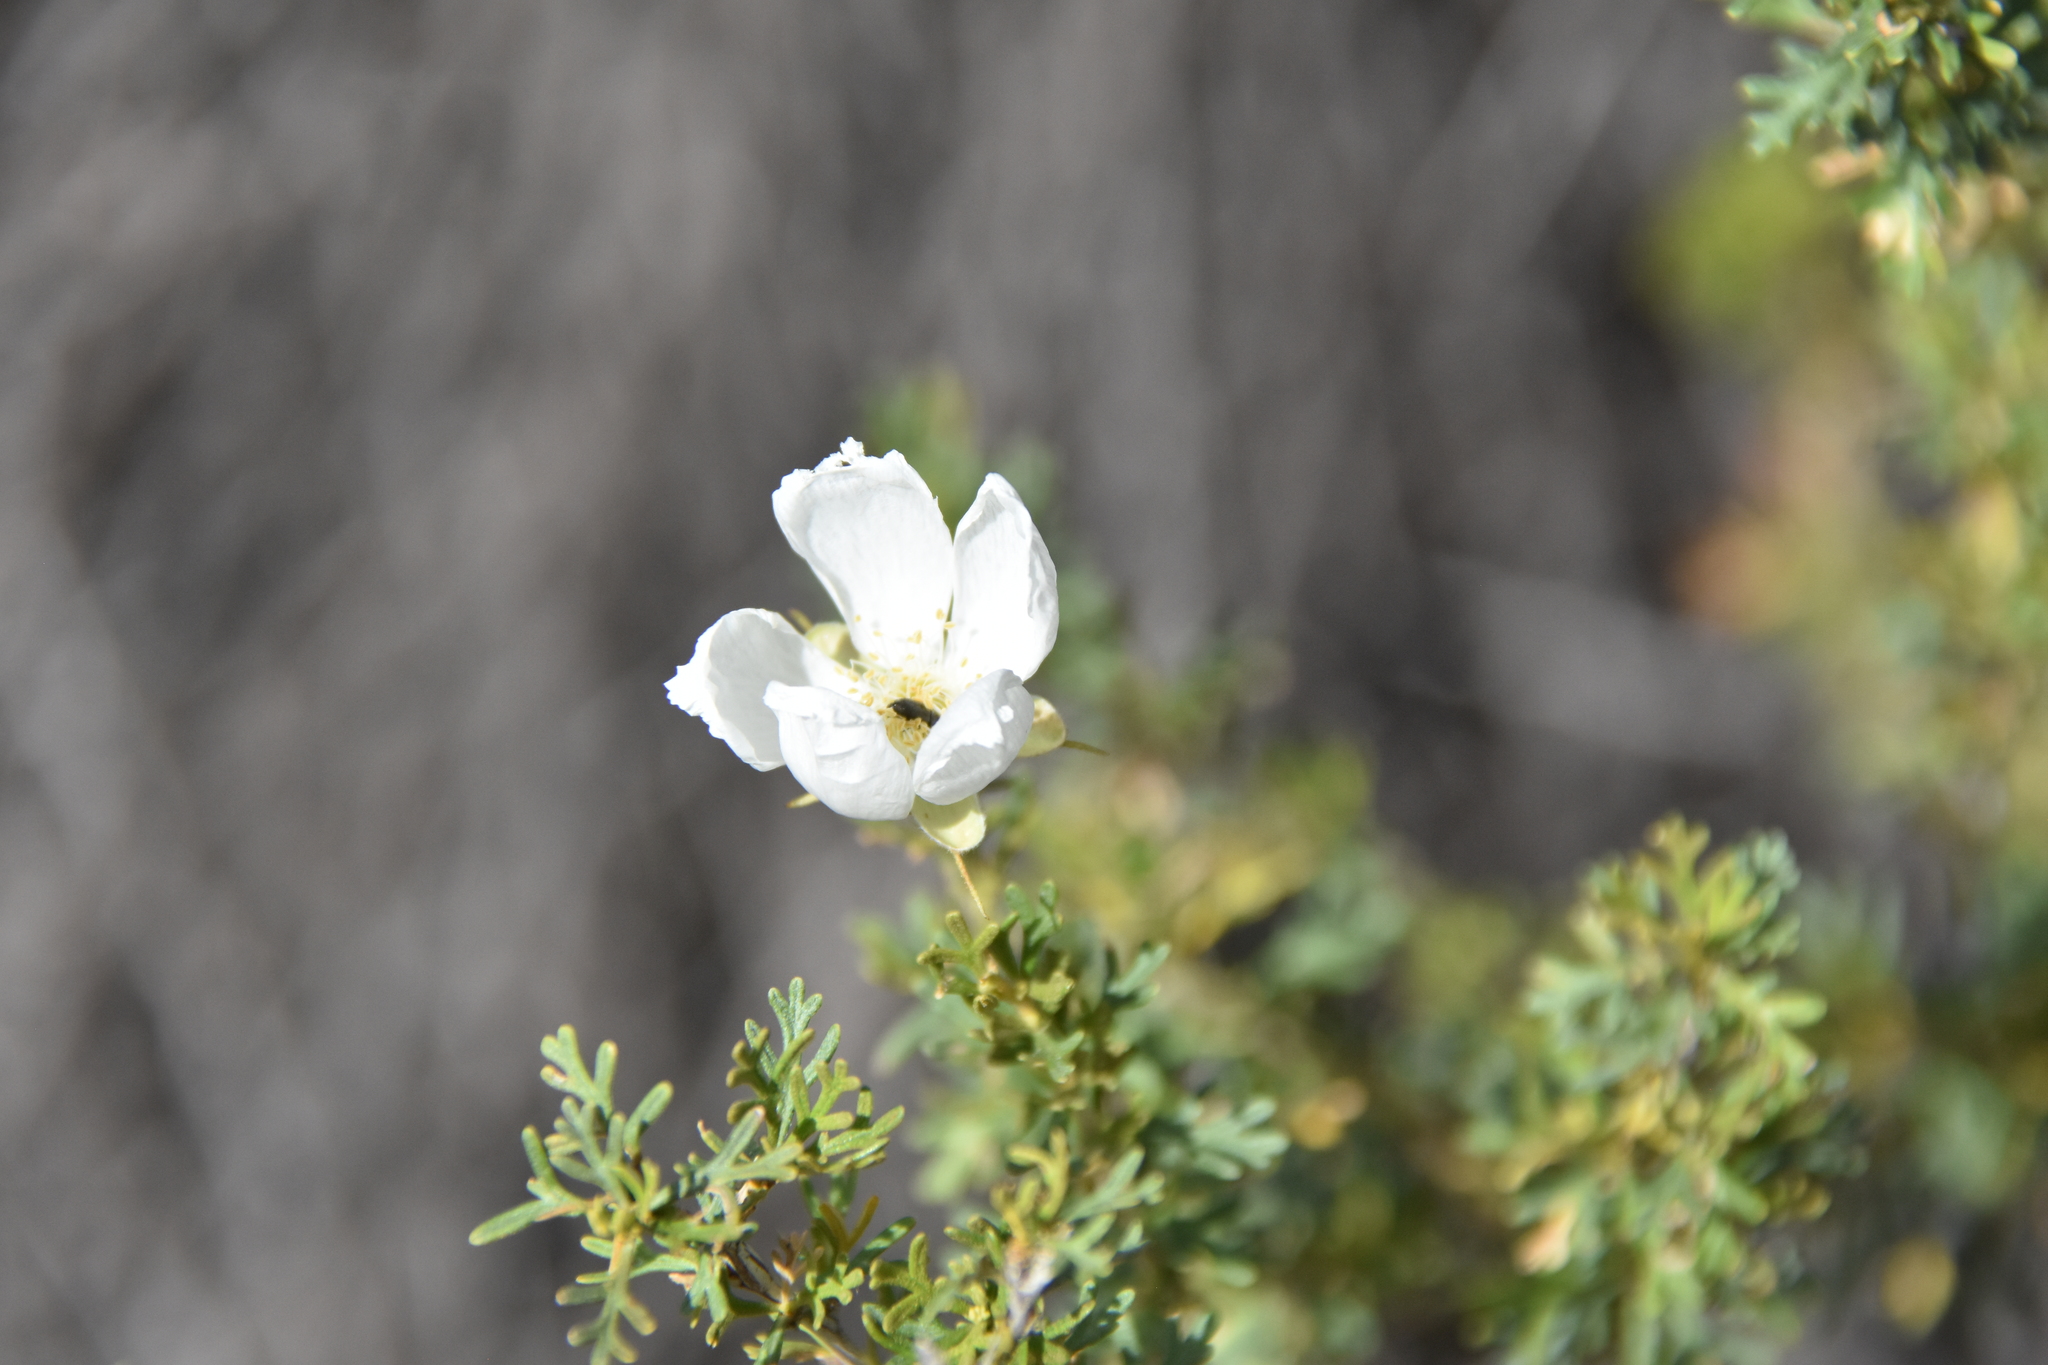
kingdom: Plantae
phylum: Tracheophyta
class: Magnoliopsida
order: Rosales
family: Rosaceae
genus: Fallugia
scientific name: Fallugia paradoxa
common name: Apache-plume
